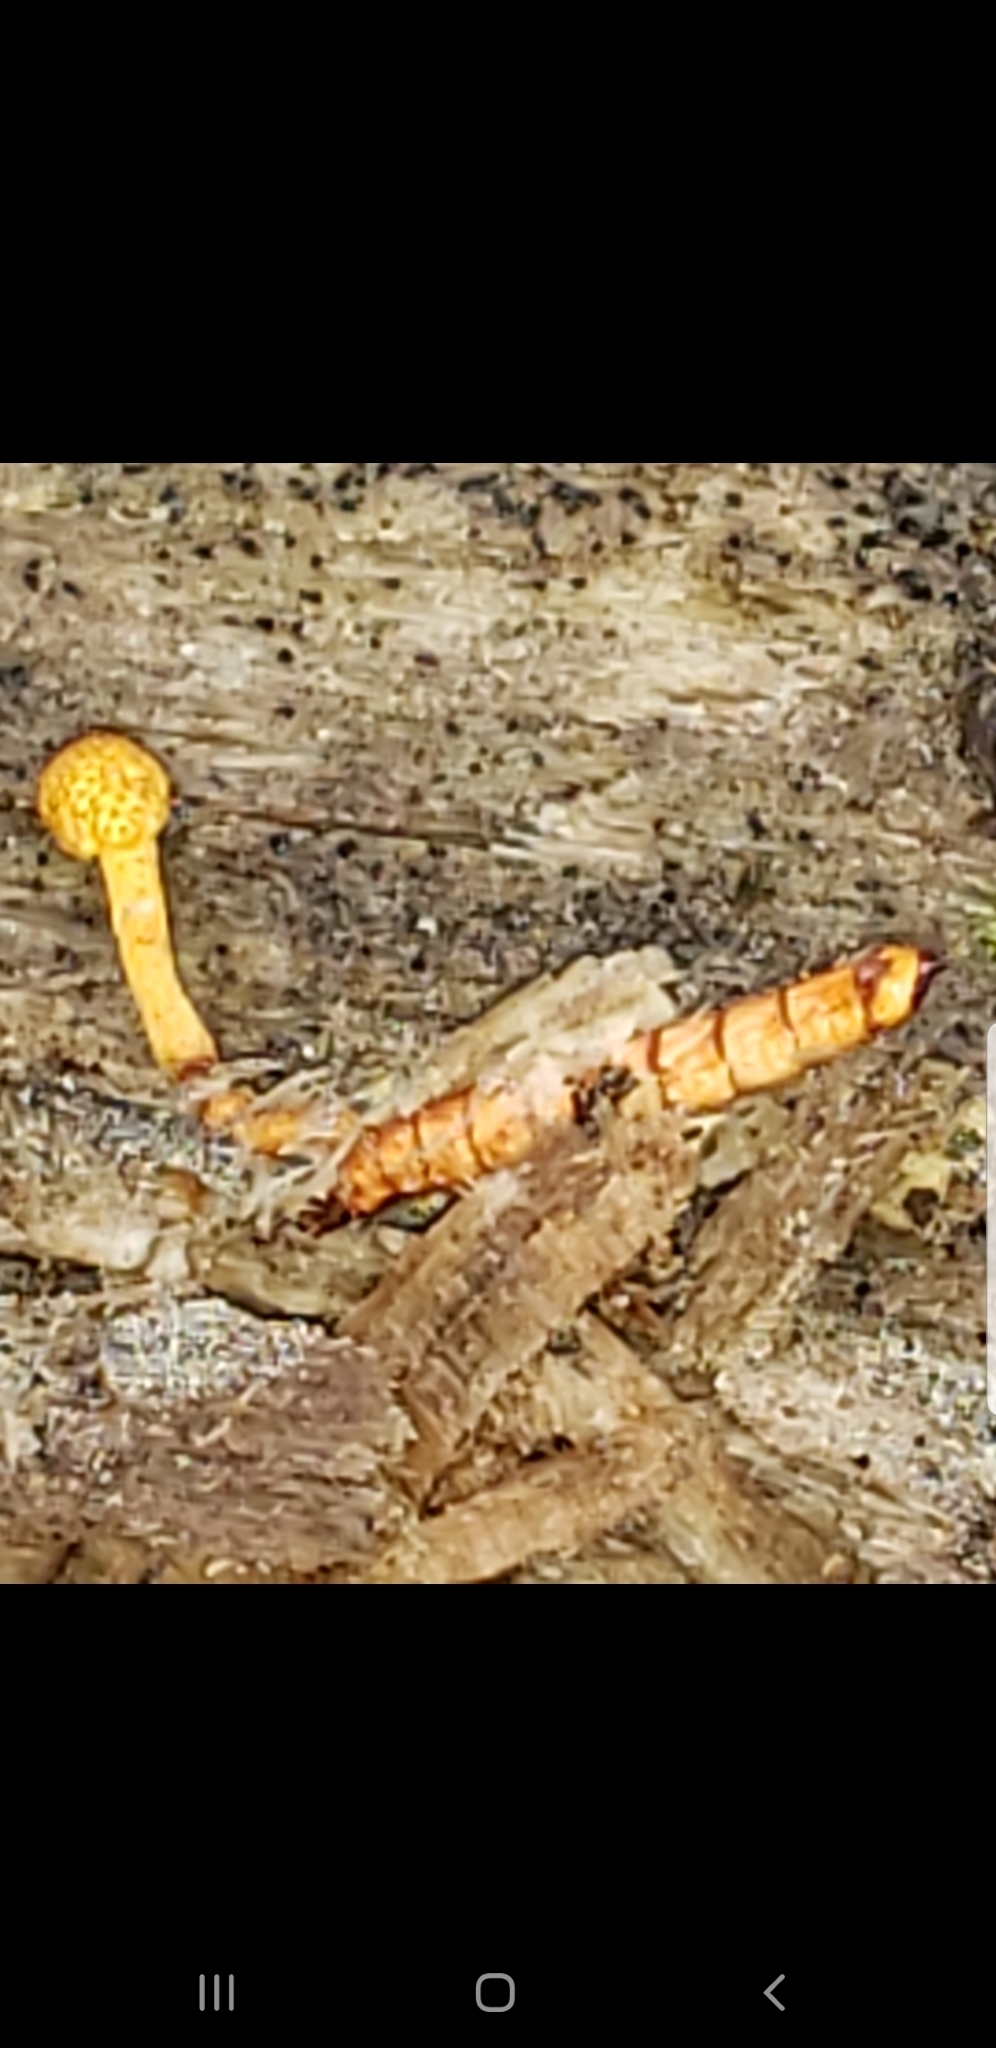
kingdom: Fungi
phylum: Ascomycota
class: Sordariomycetes
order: Hypocreales
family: Ophiocordycipitaceae
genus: Ophiocordyceps
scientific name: Ophiocordyceps variabilis
